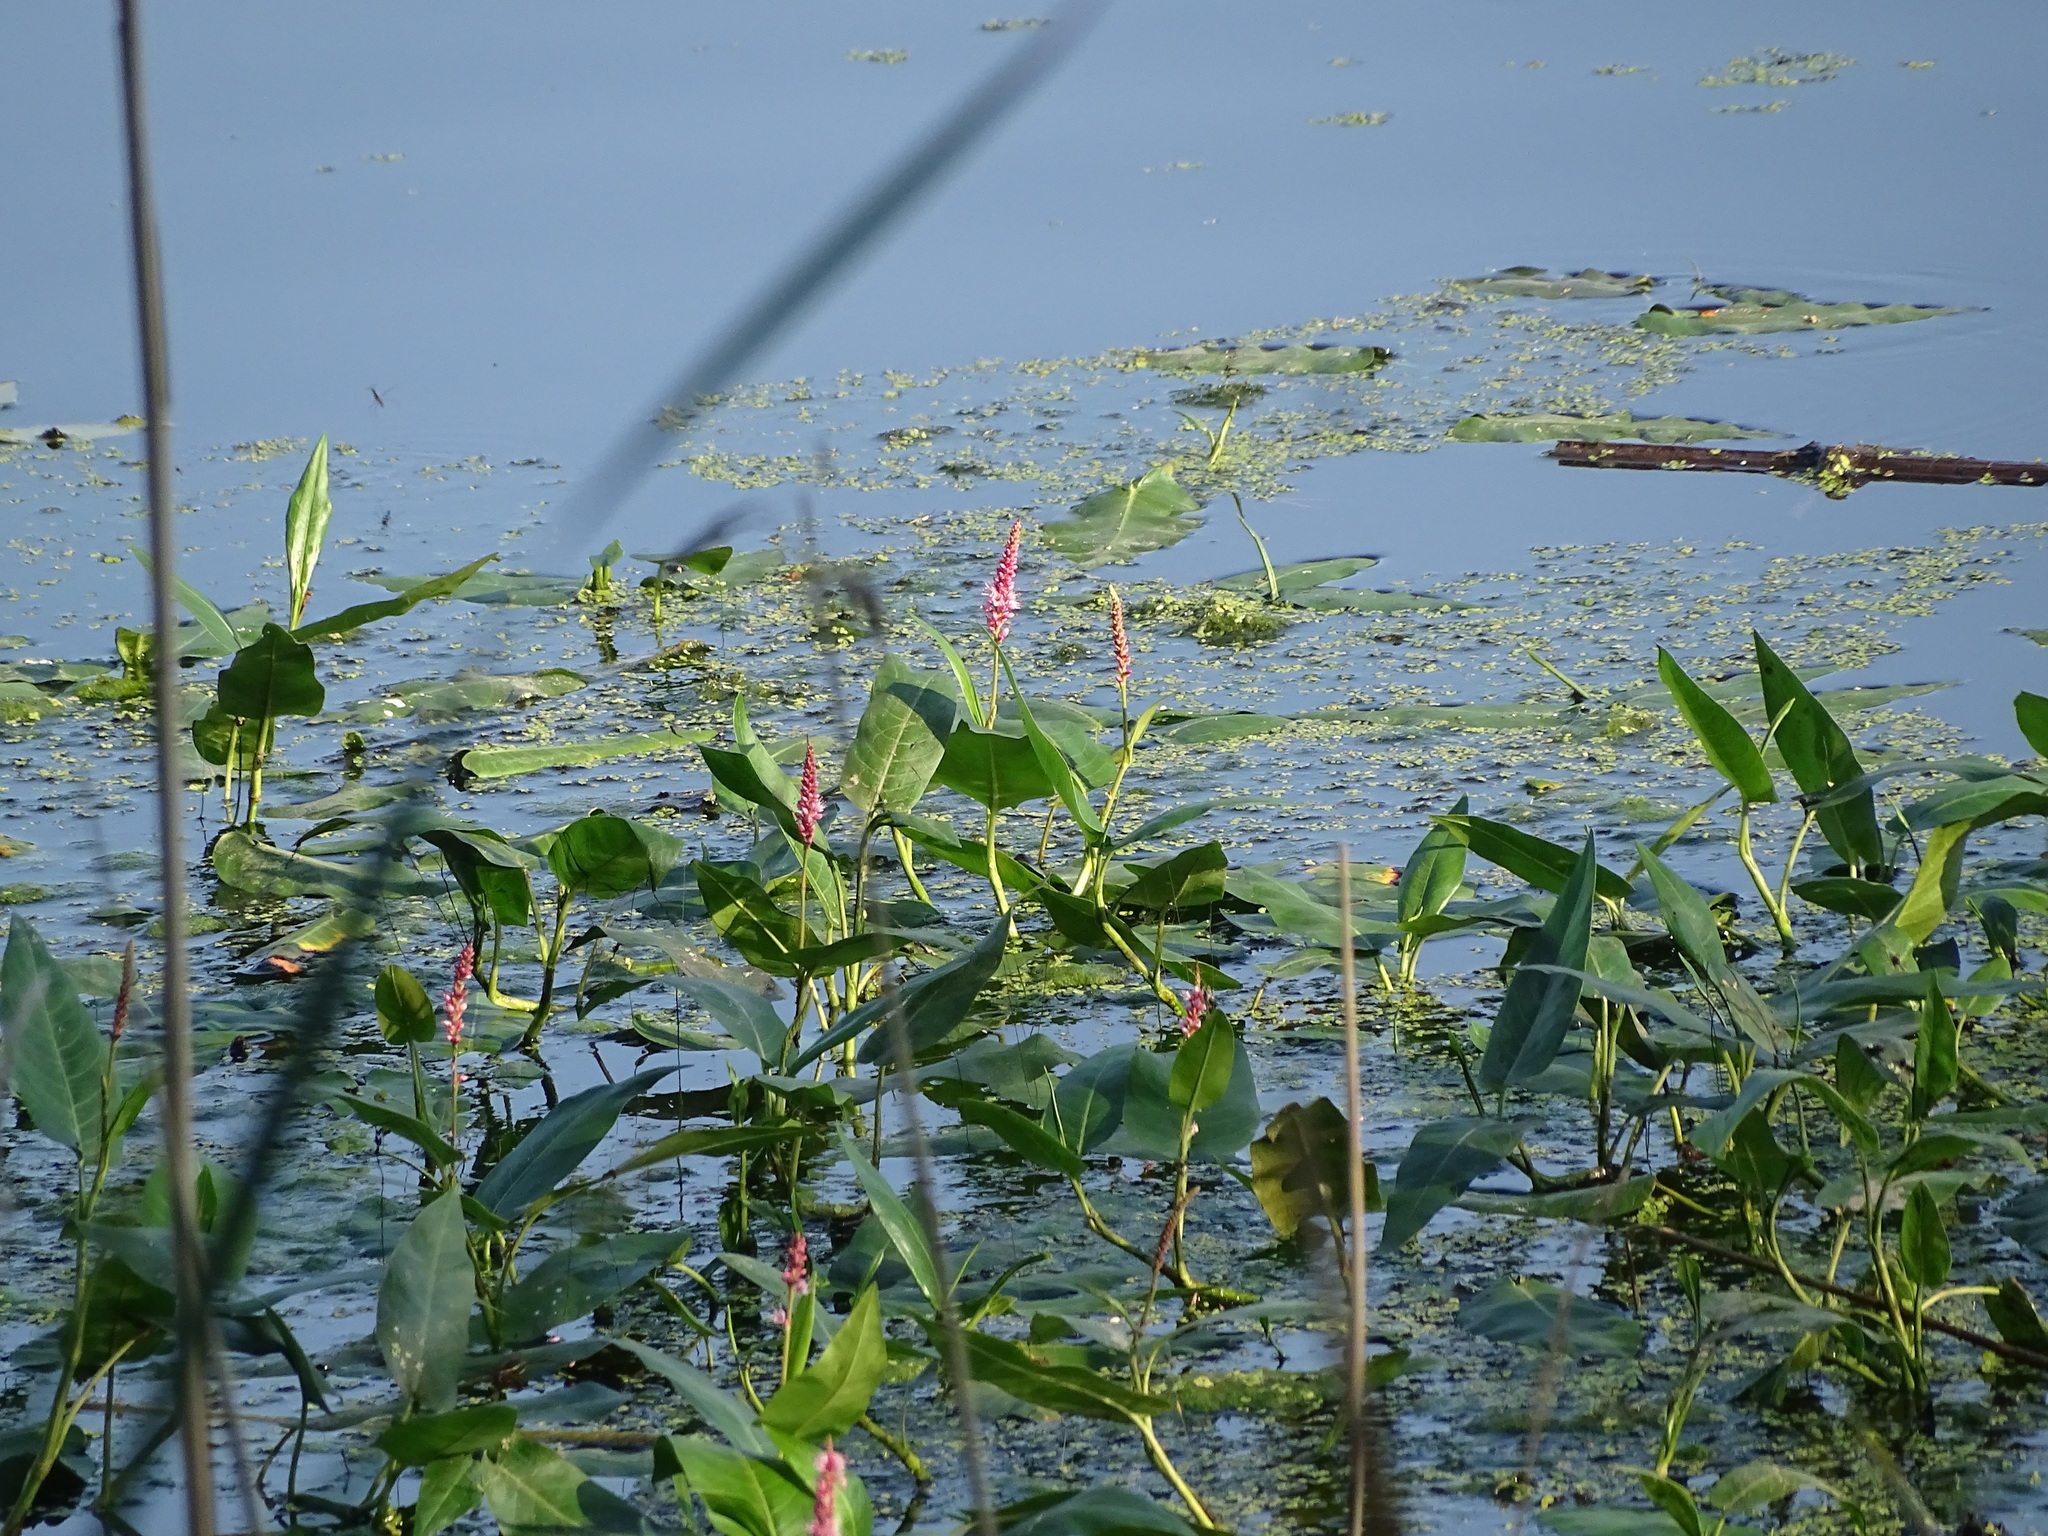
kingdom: Plantae
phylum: Tracheophyta
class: Magnoliopsida
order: Caryophyllales
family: Polygonaceae
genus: Persicaria
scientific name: Persicaria amphibia
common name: Amphibious bistort
